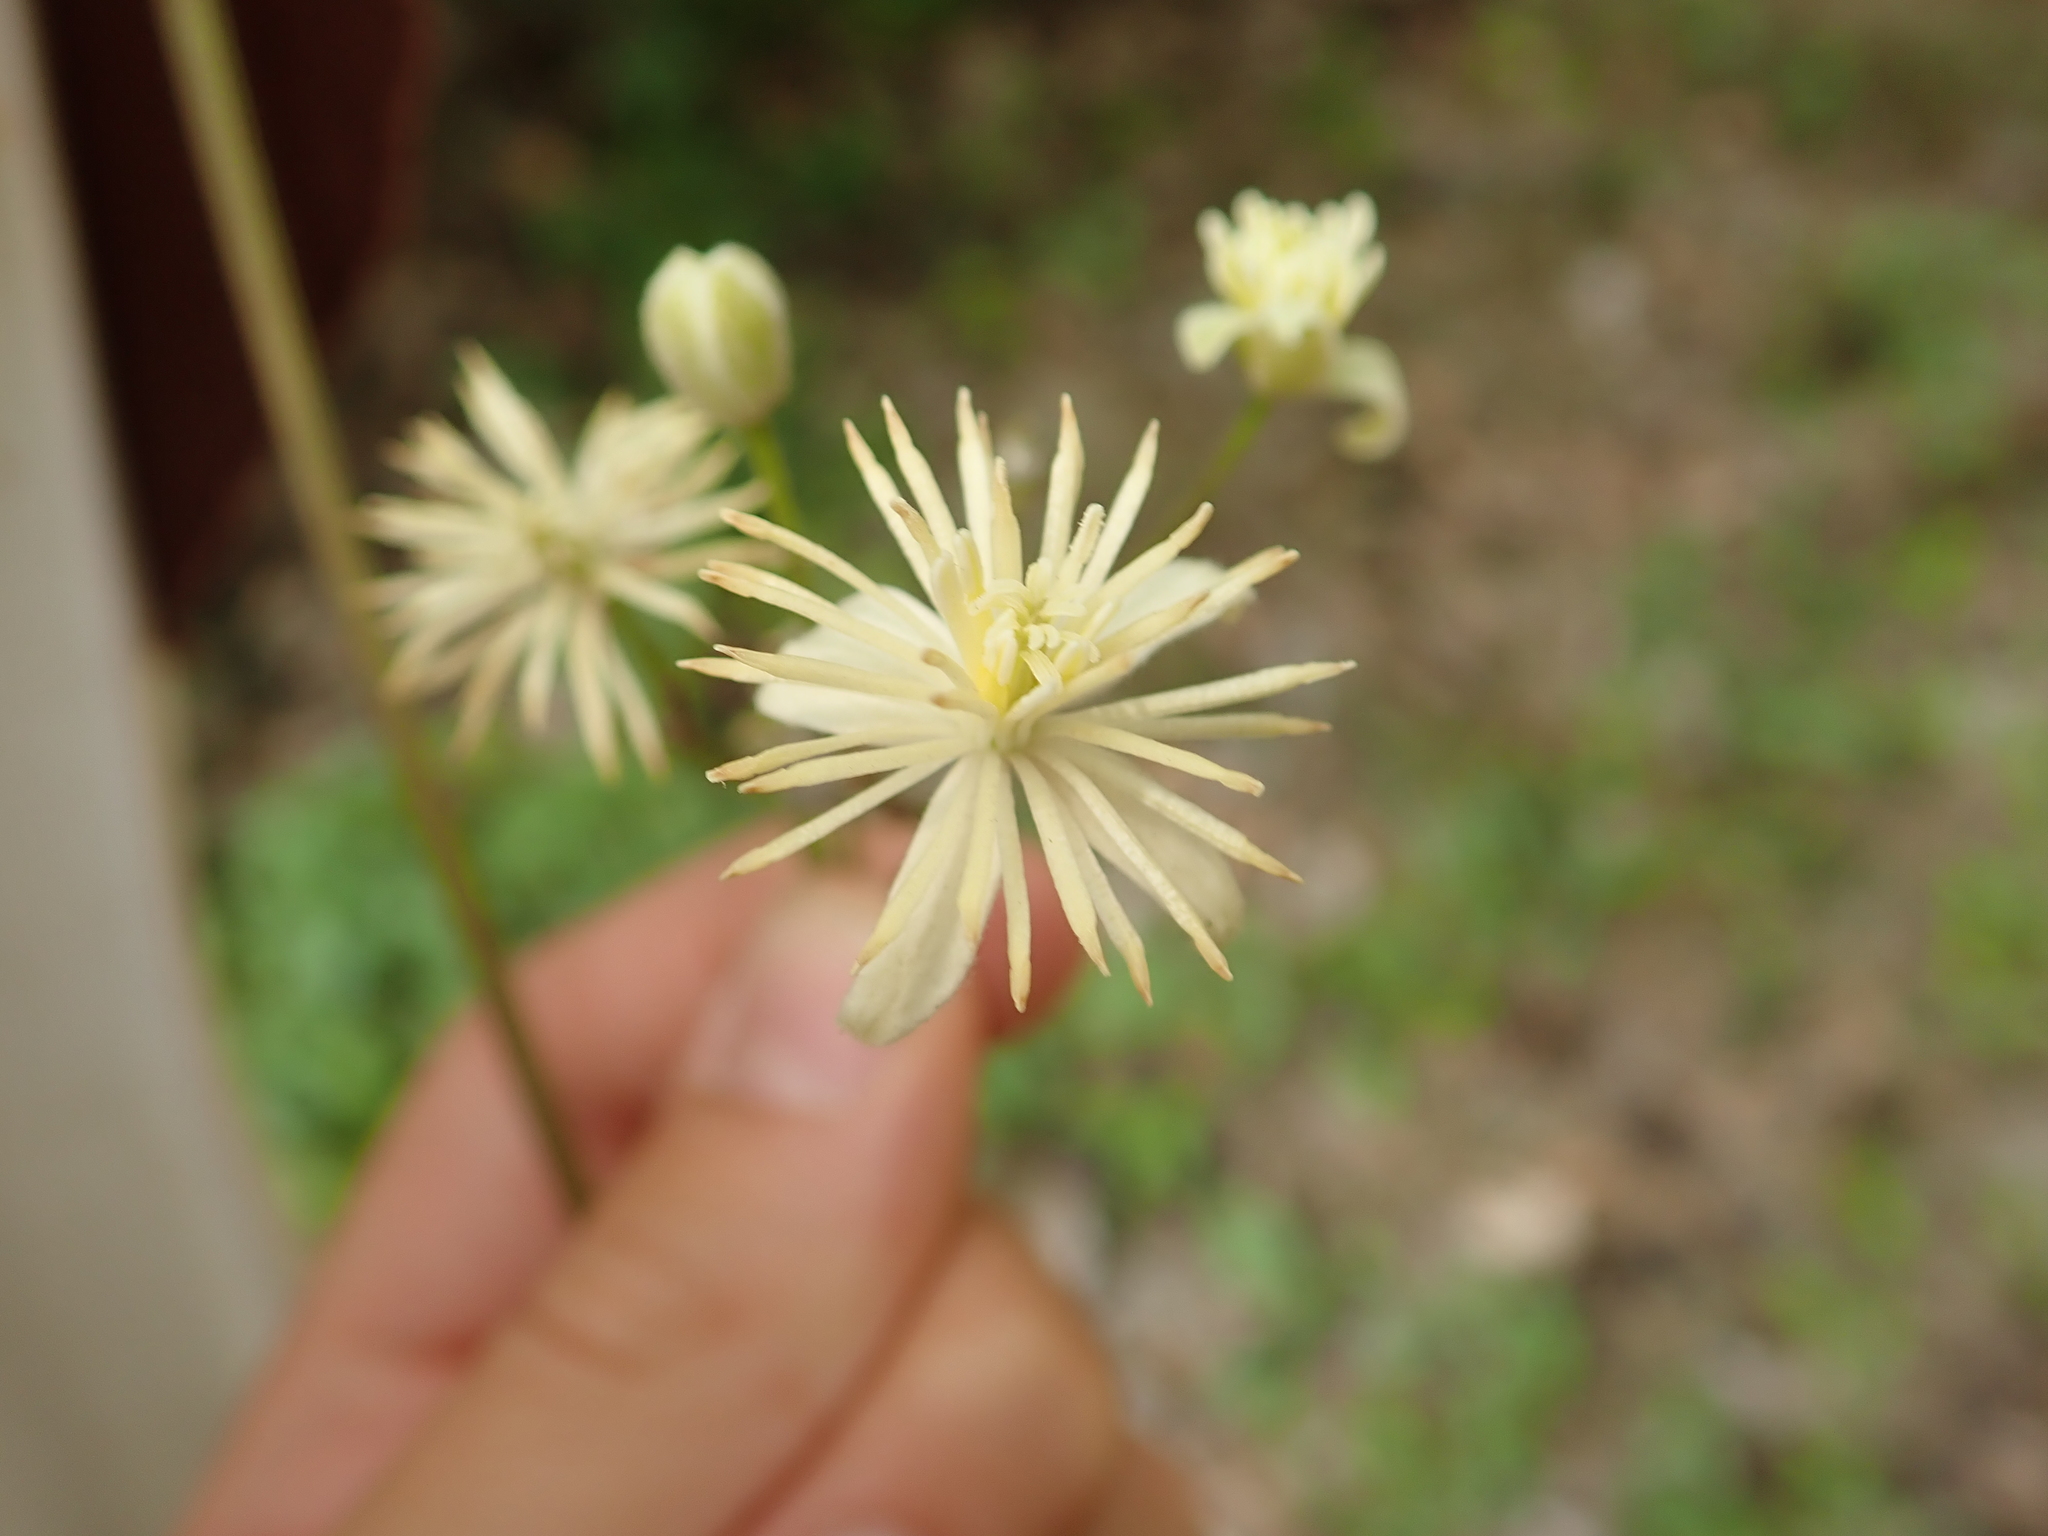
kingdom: Plantae
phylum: Tracheophyta
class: Magnoliopsida
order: Ranunculales
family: Ranunculaceae
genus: Clematis
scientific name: Clematis vitalba
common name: Evergreen clematis
